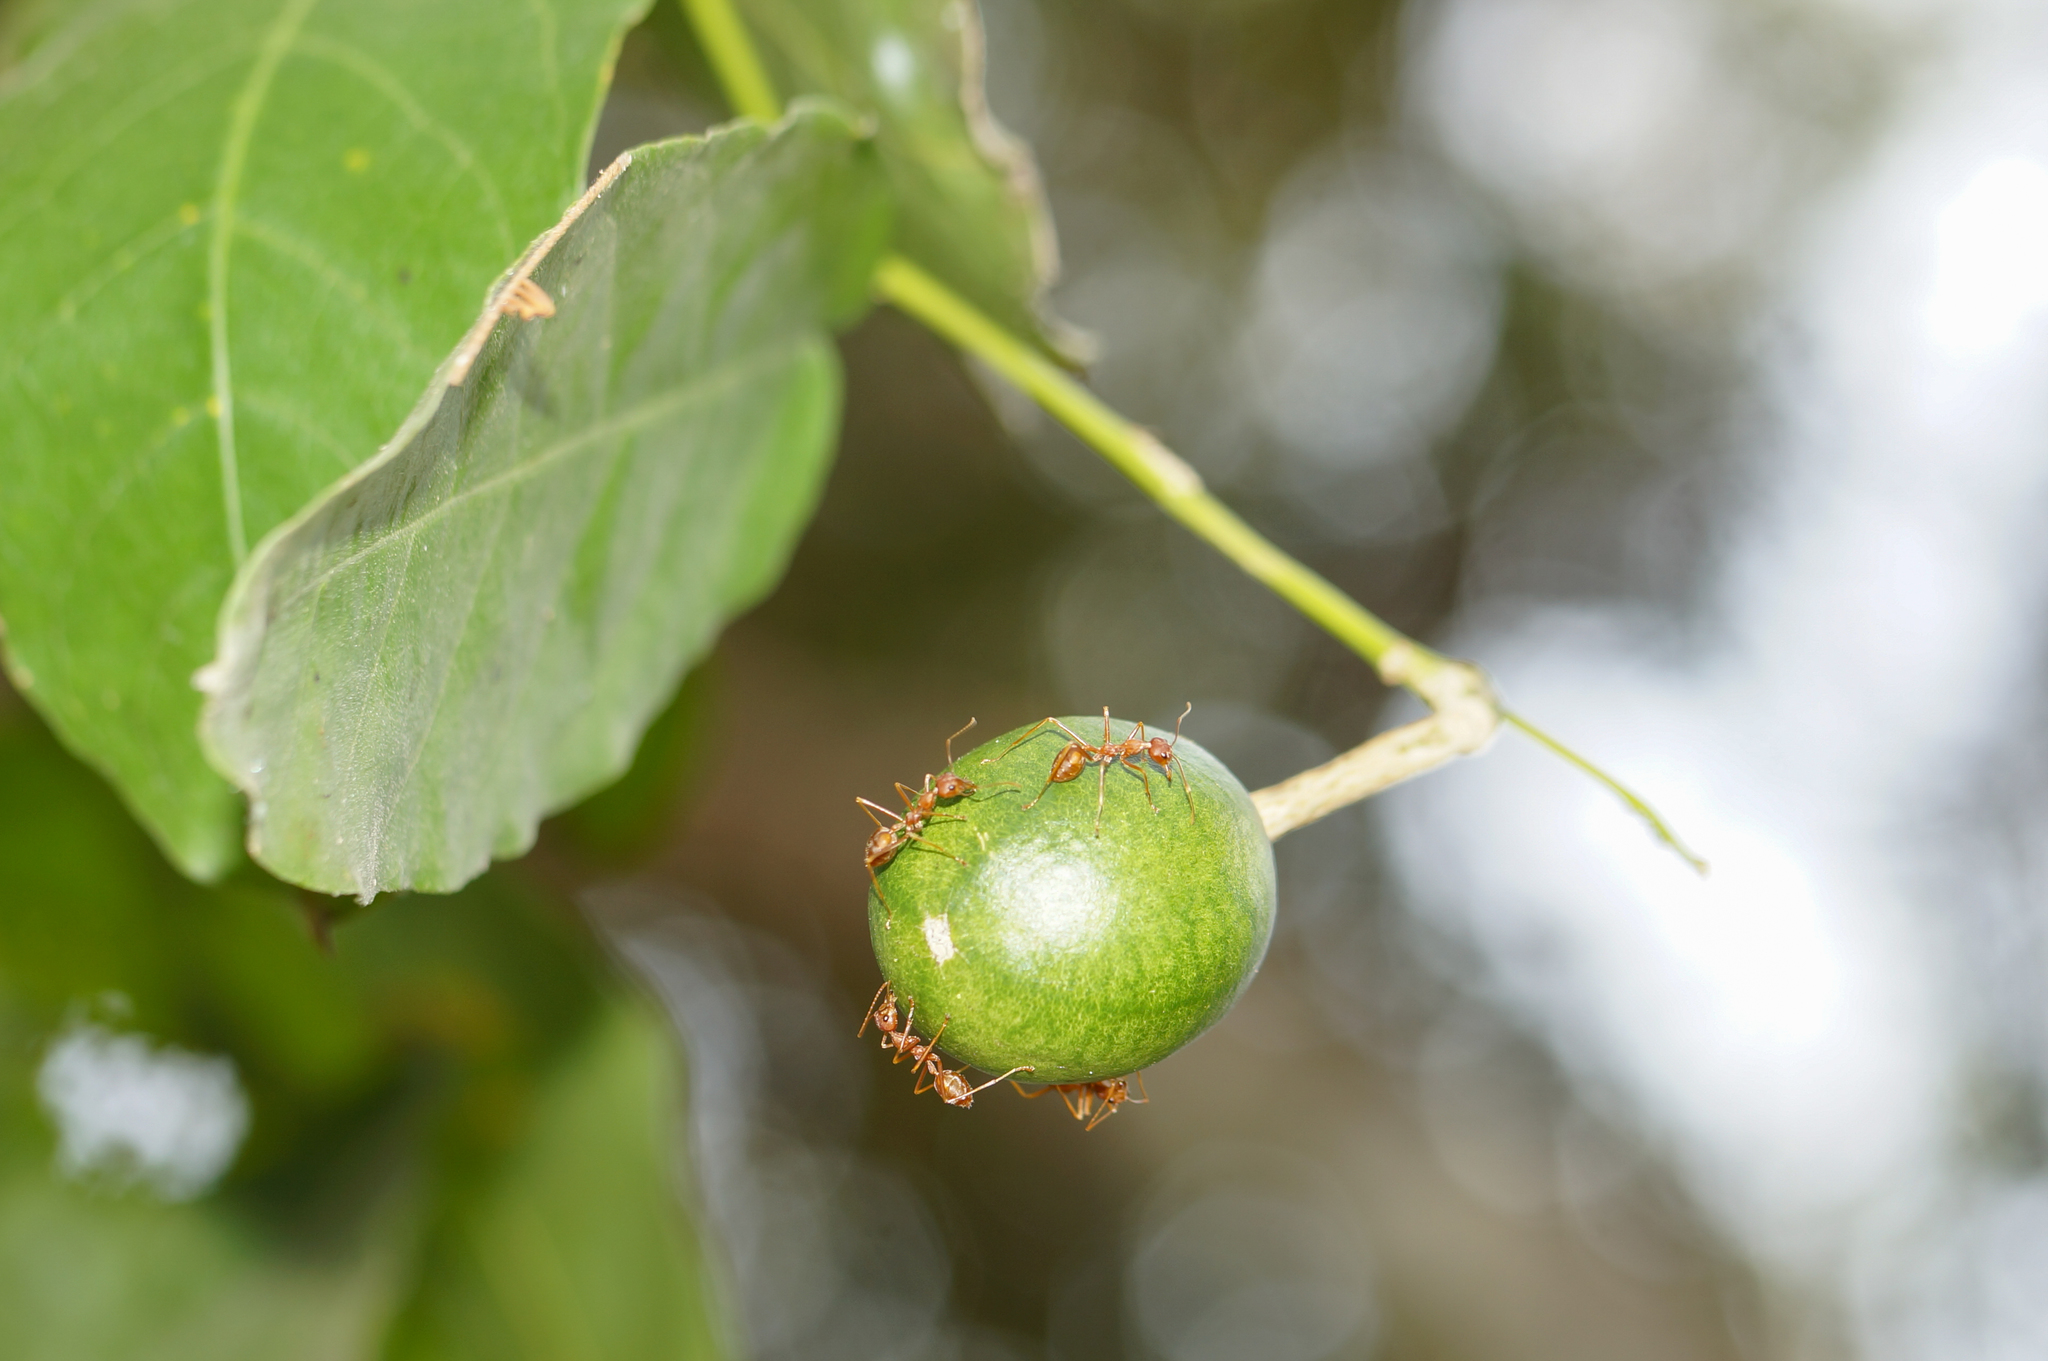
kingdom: Animalia
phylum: Arthropoda
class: Insecta
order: Hymenoptera
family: Formicidae
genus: Oecophylla
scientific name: Oecophylla smaragdina
